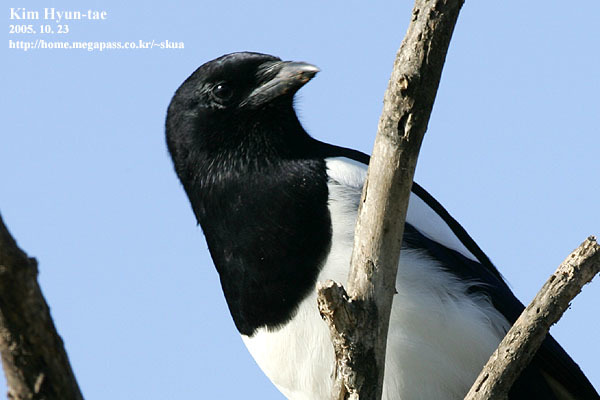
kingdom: Animalia
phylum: Chordata
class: Aves
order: Passeriformes
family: Corvidae
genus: Pica
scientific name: Pica serica
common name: Oriental magpie
